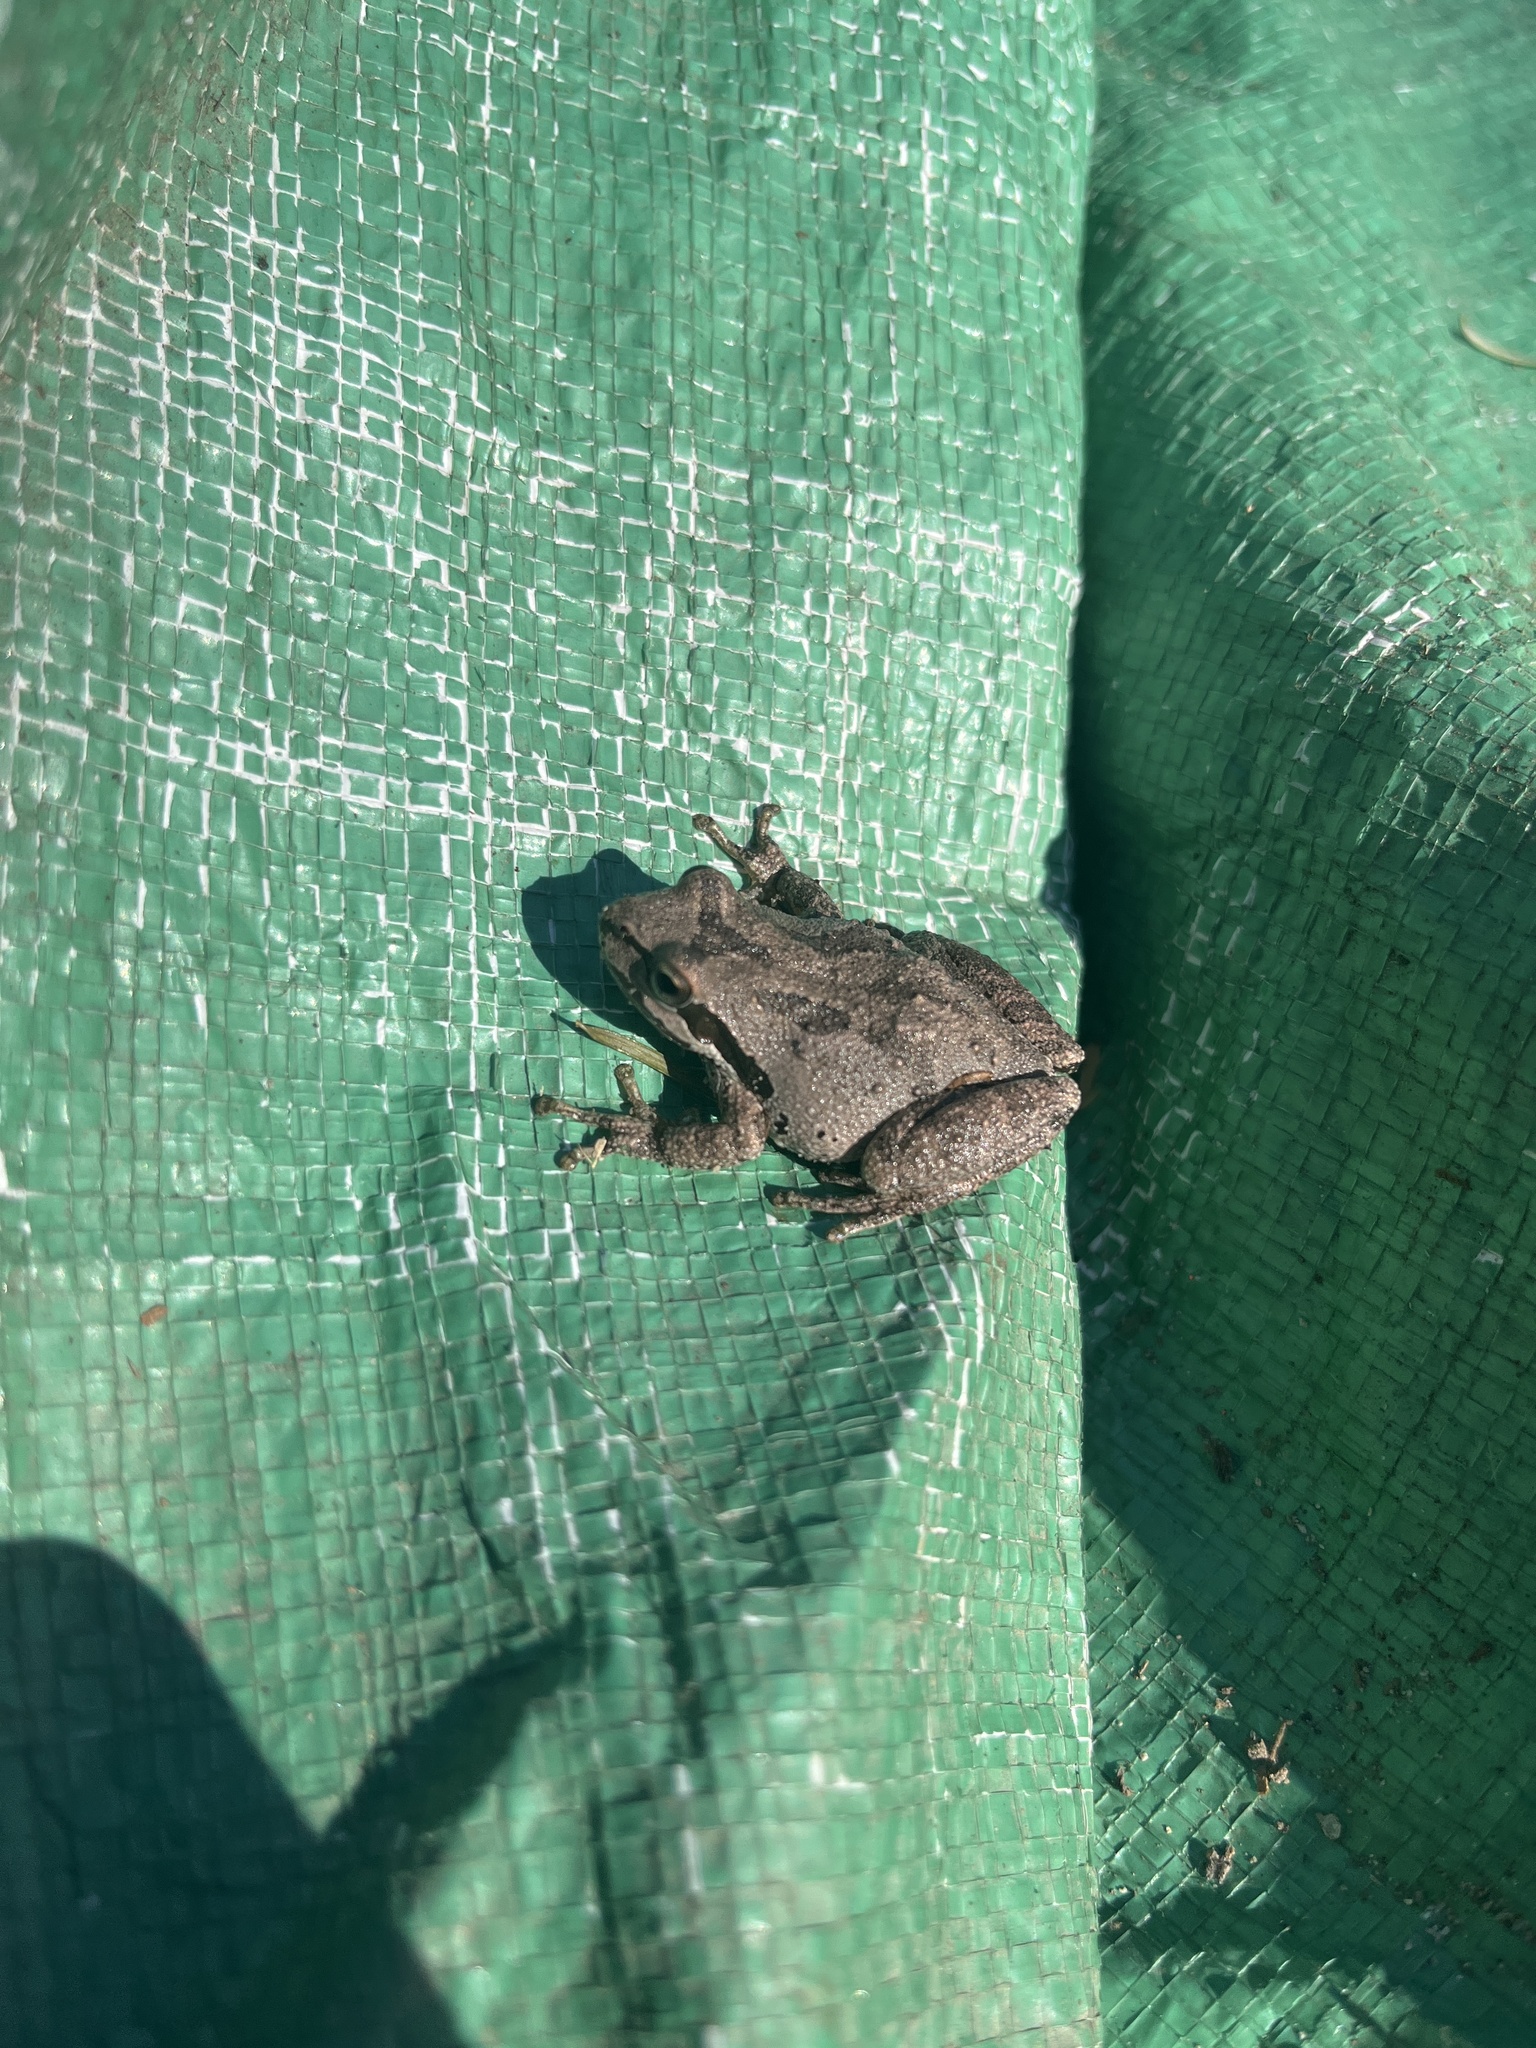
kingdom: Animalia
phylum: Chordata
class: Amphibia
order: Anura
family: Hylidae
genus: Pseudacris
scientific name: Pseudacris regilla
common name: Pacific chorus frog
